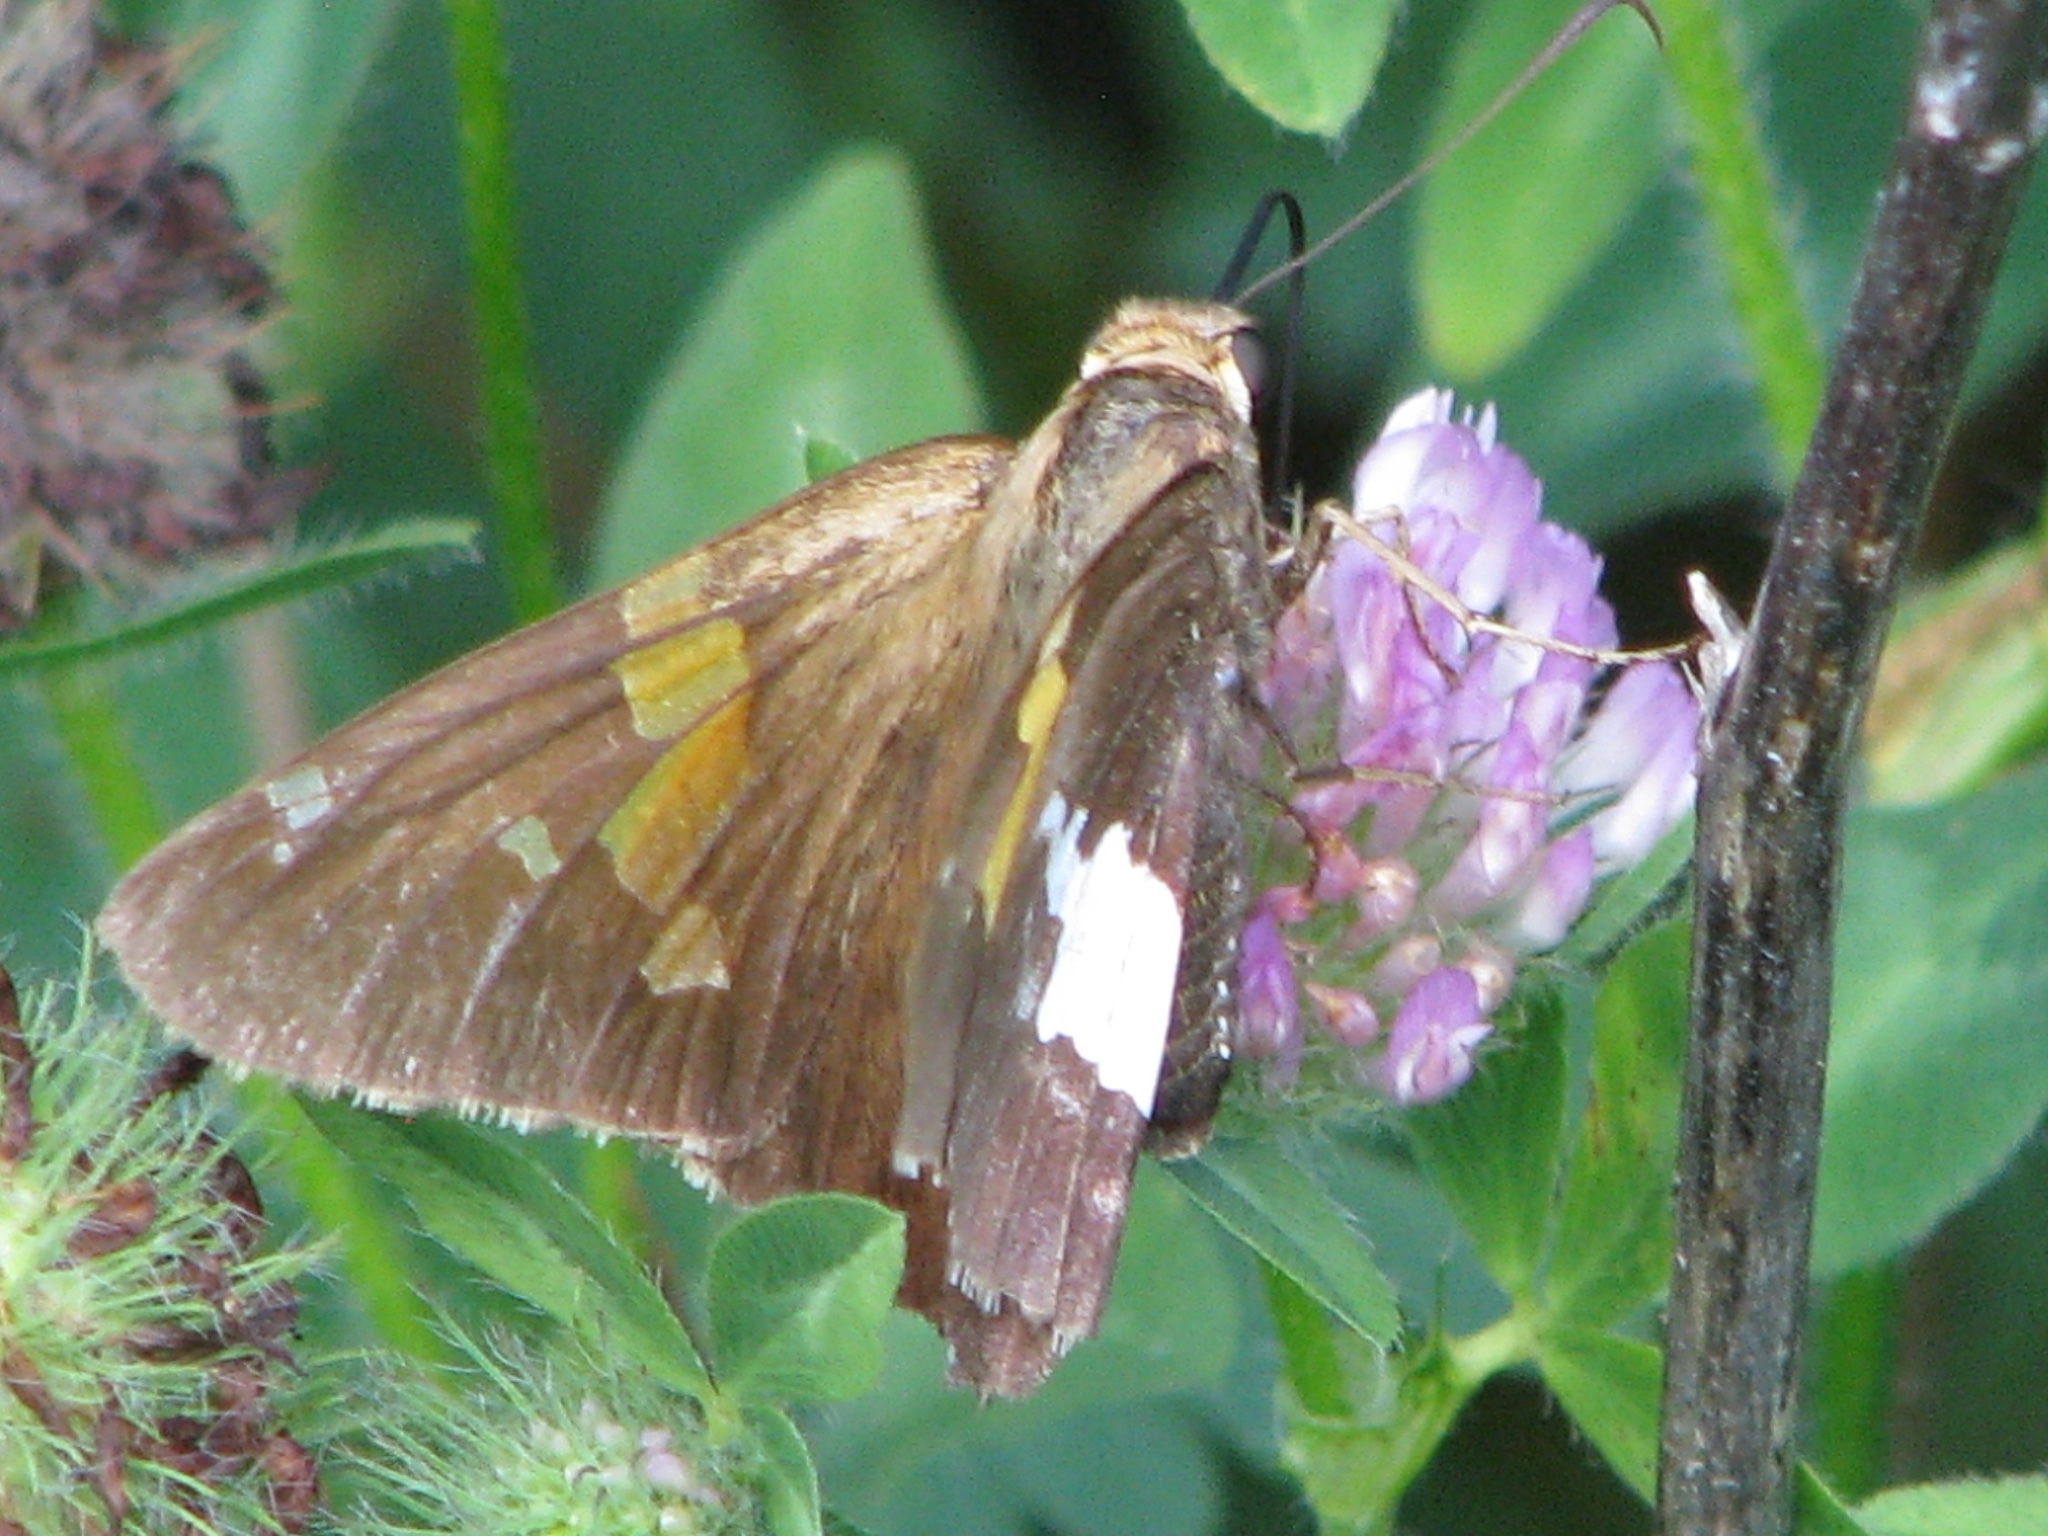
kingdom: Animalia
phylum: Arthropoda
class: Insecta
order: Lepidoptera
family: Hesperiidae
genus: Epargyreus
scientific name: Epargyreus clarus
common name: Silver-spotted skipper
